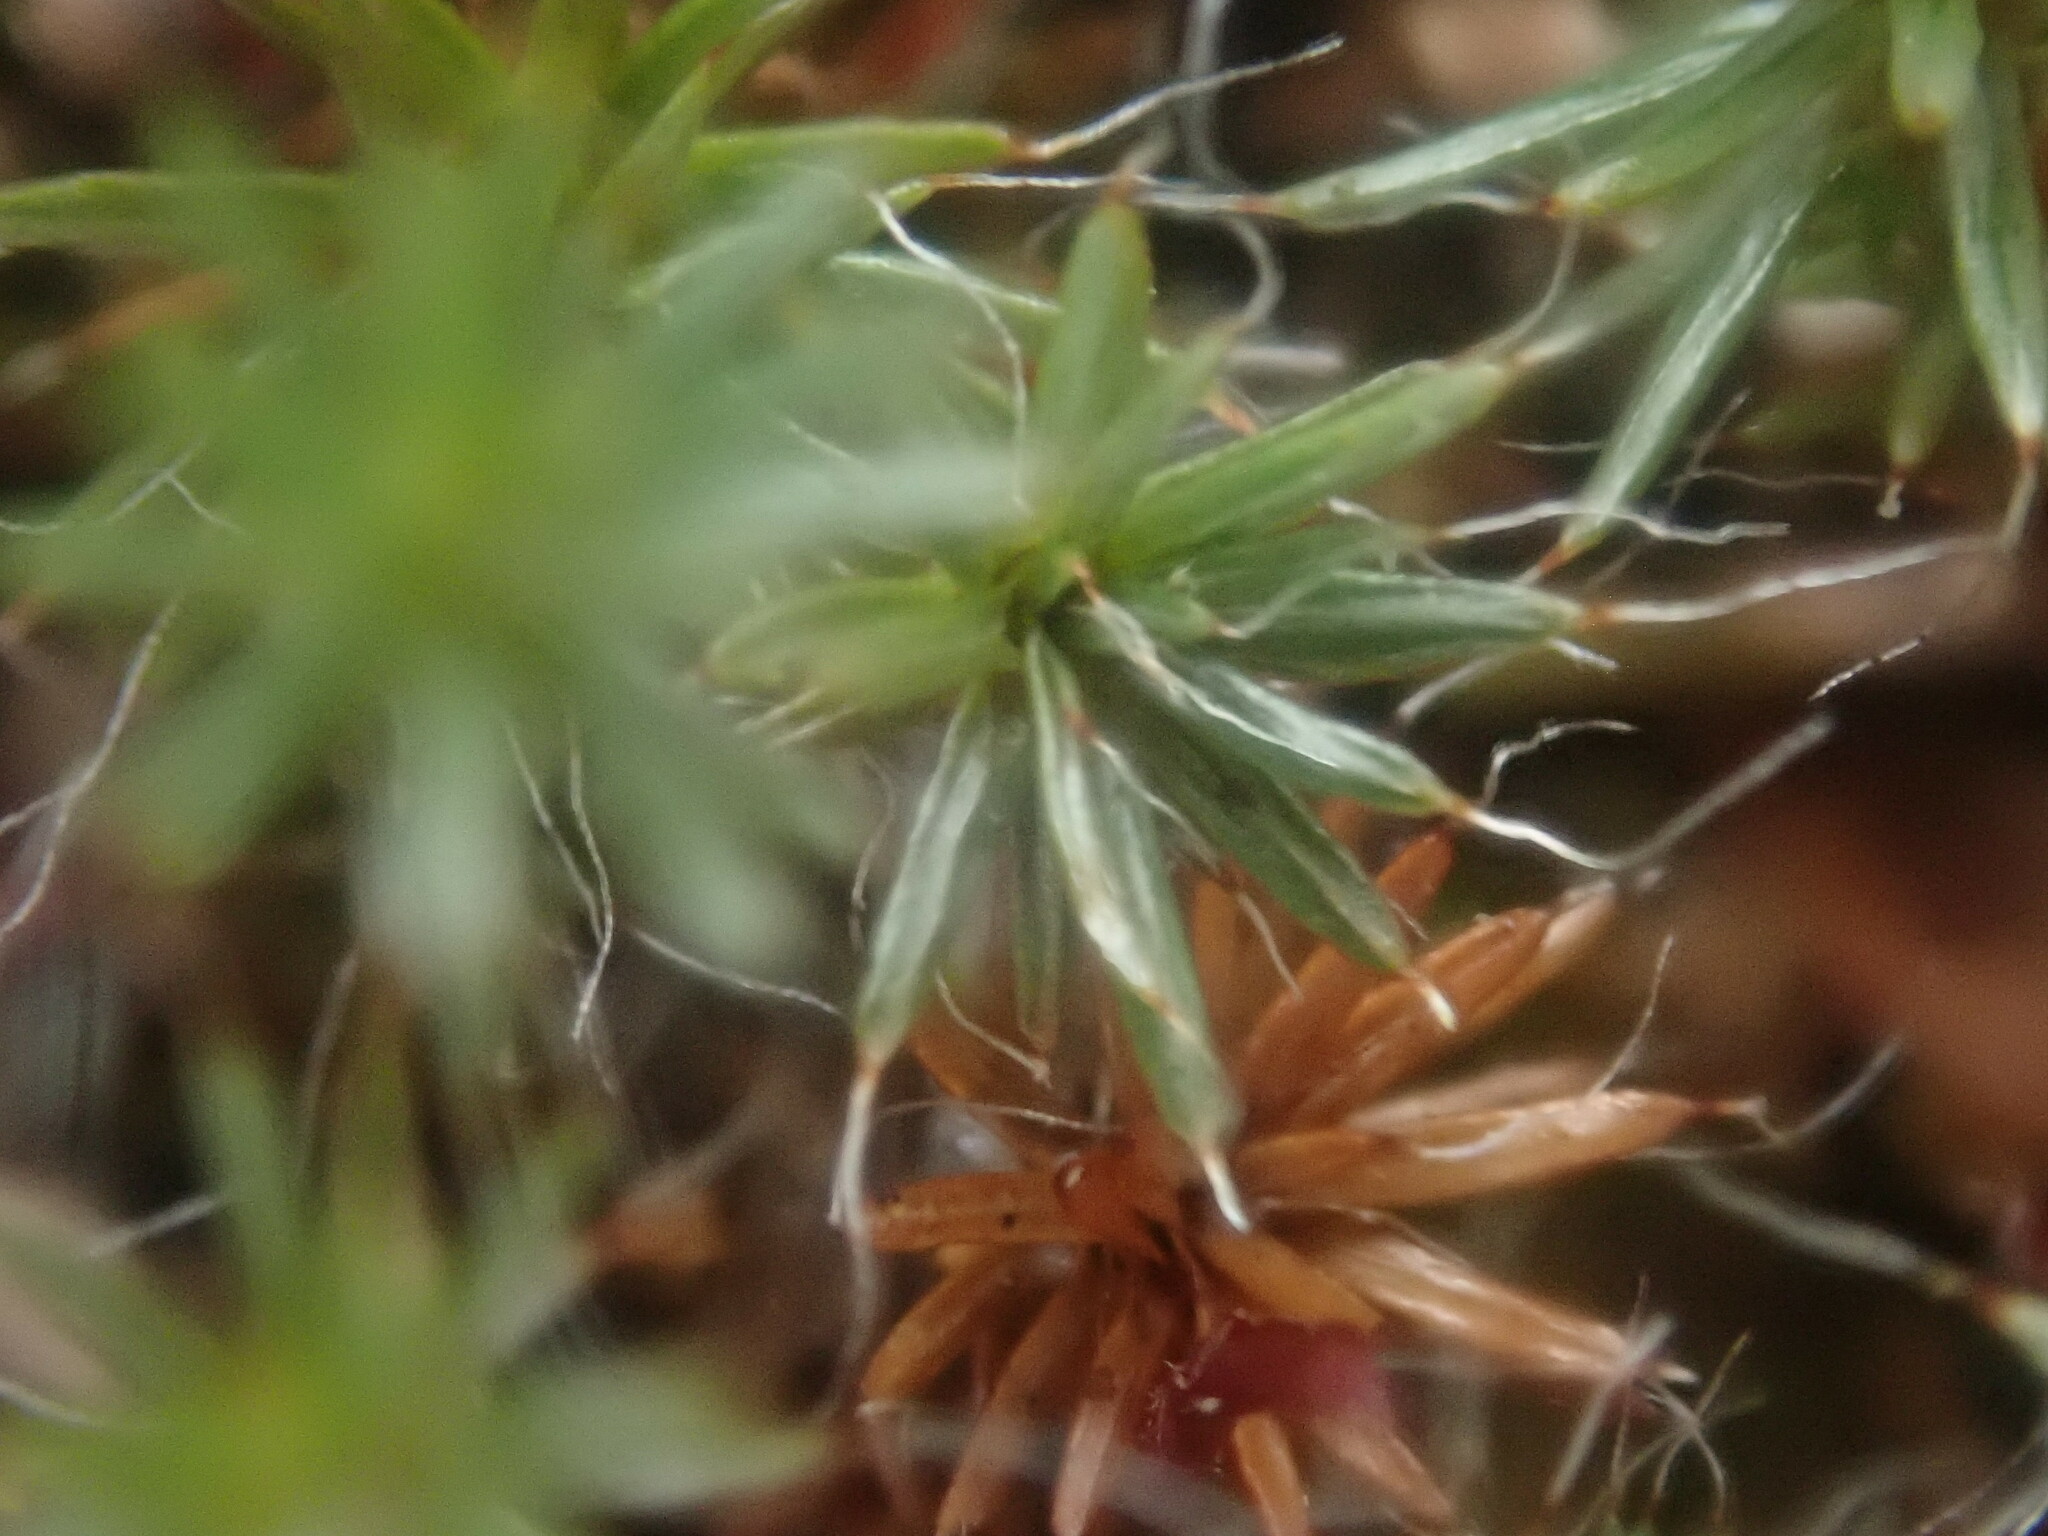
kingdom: Plantae
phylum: Bryophyta
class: Polytrichopsida
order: Polytrichales
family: Polytrichaceae
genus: Polytrichum
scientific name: Polytrichum piliferum
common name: Bristly haircap
